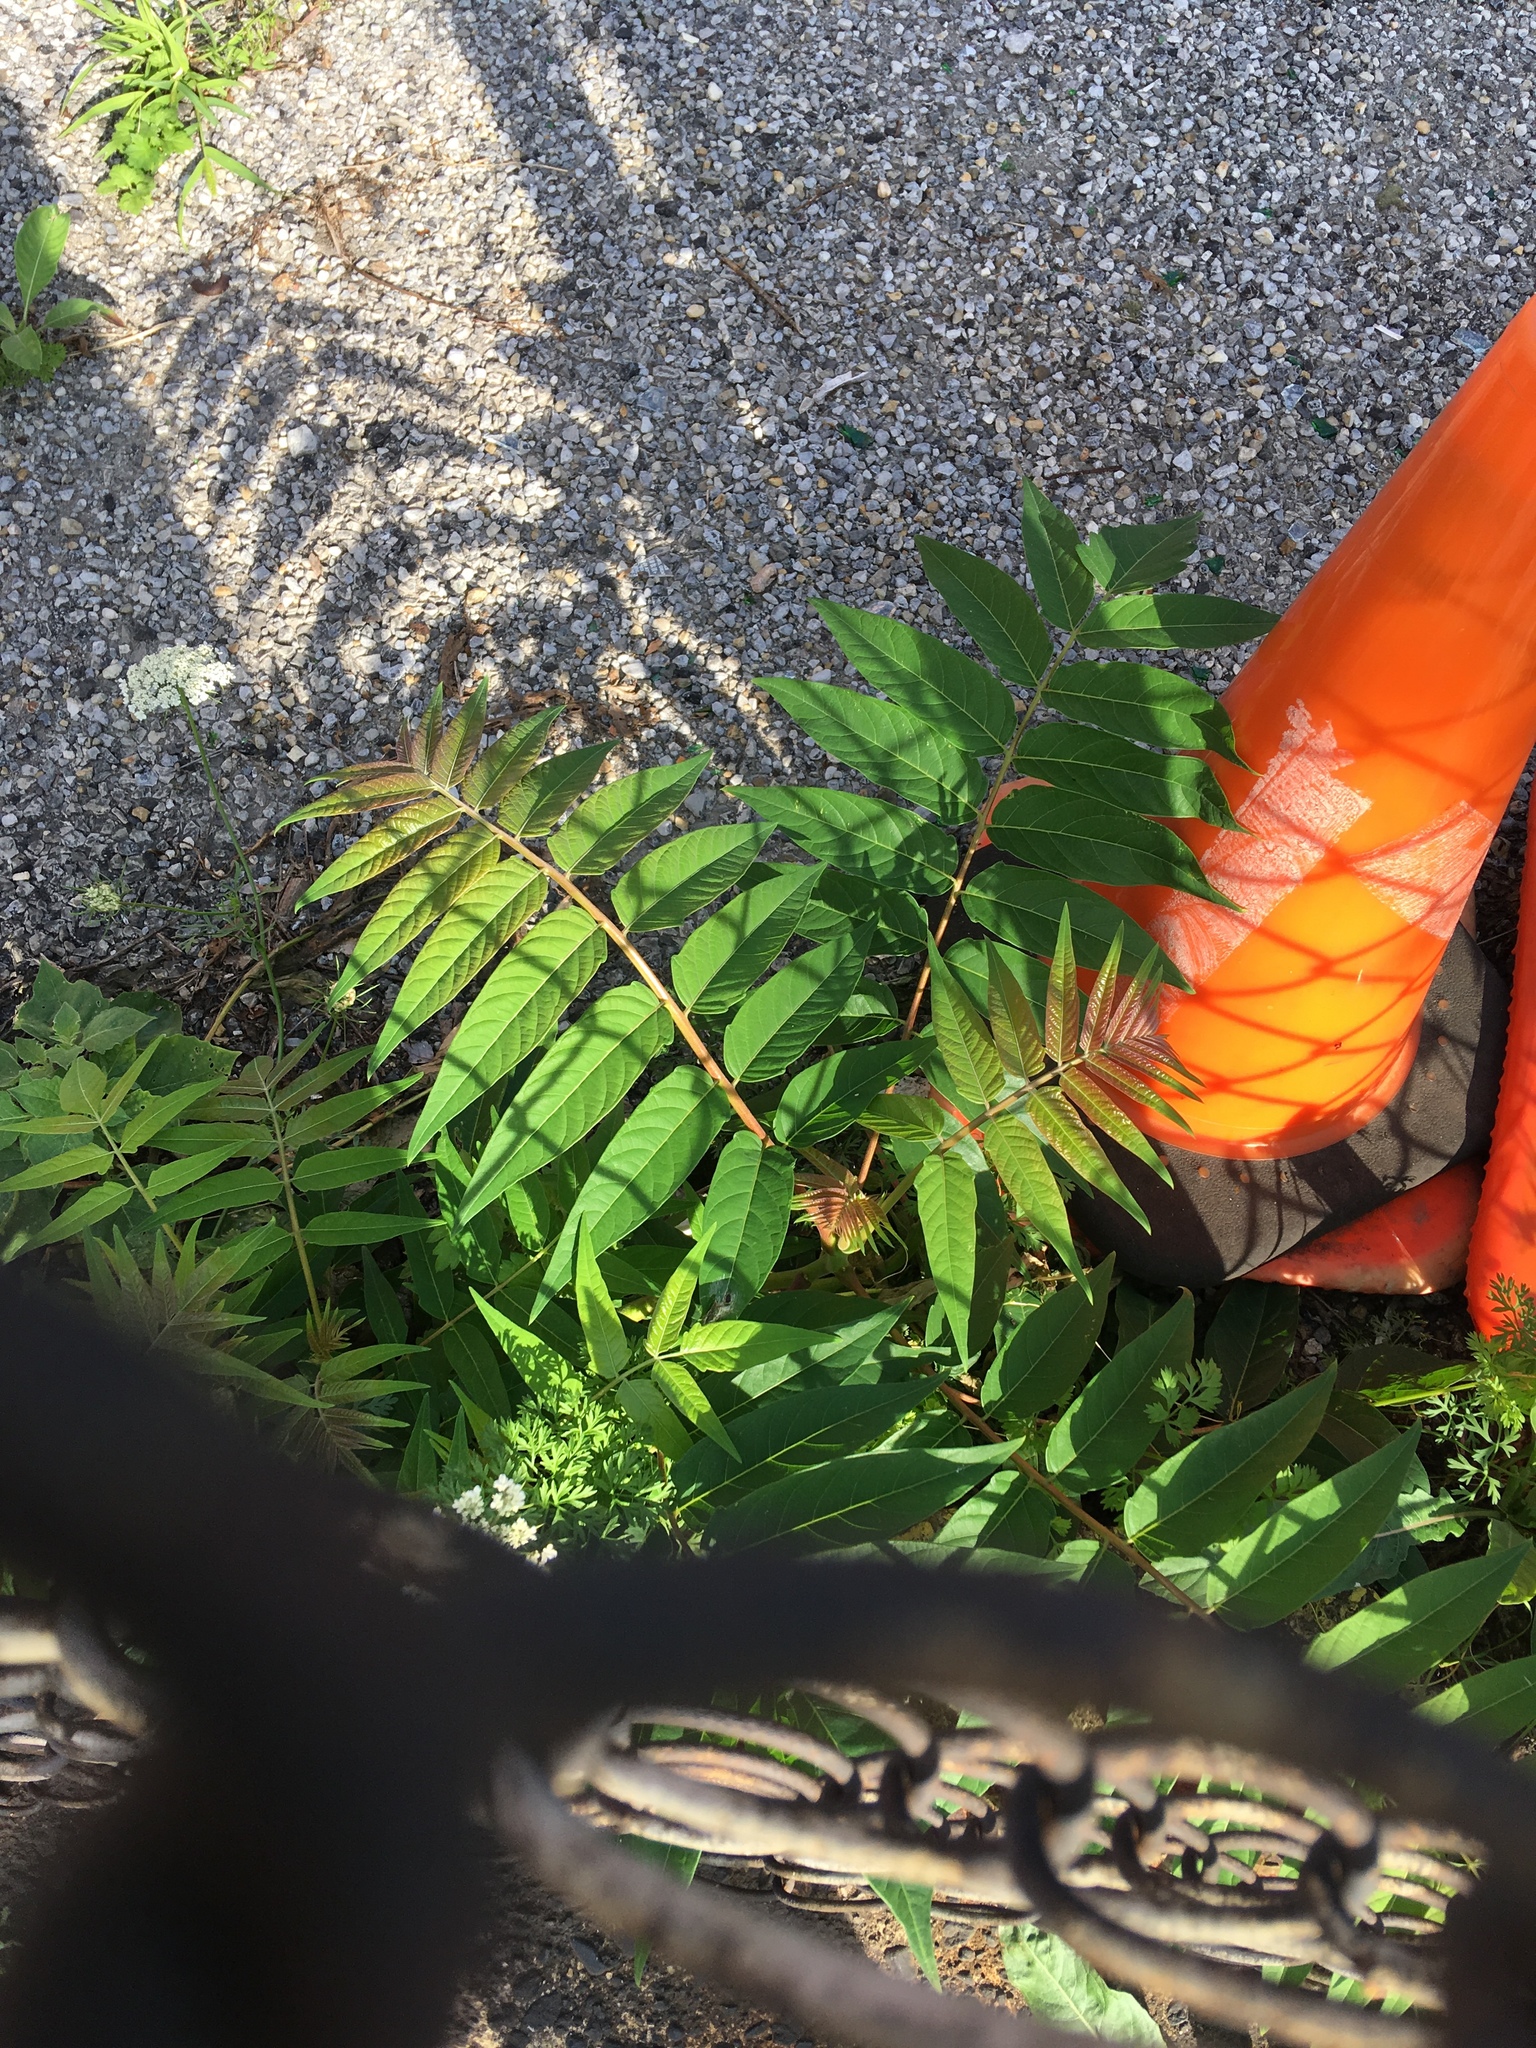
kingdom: Plantae
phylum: Tracheophyta
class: Magnoliopsida
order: Sapindales
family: Simaroubaceae
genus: Ailanthus
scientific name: Ailanthus altissima
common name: Tree-of-heaven
